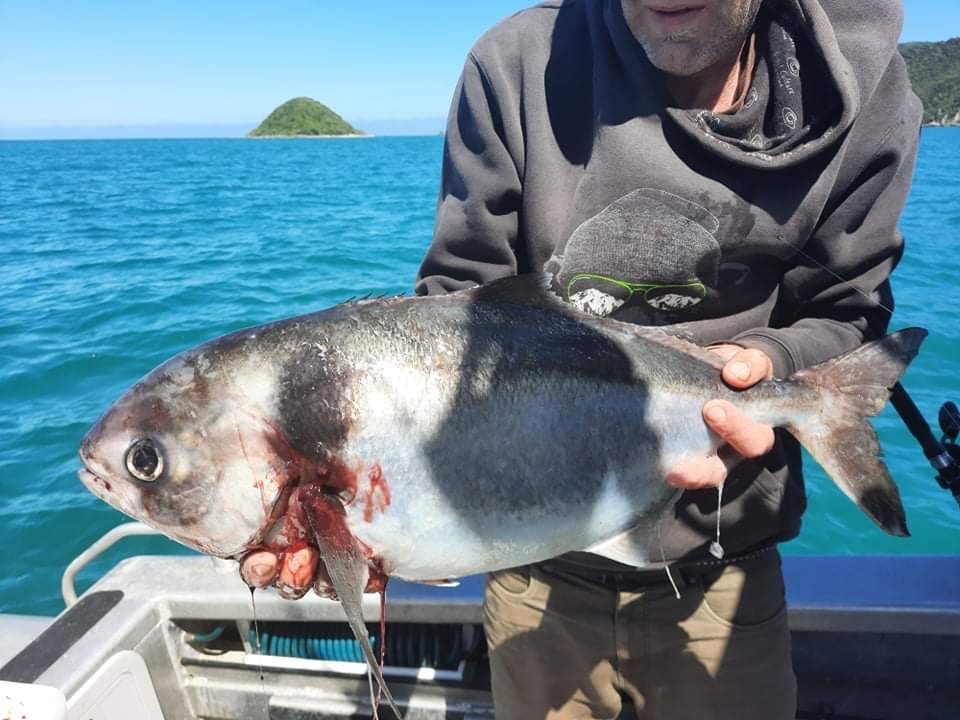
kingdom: Animalia
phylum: Chordata
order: Perciformes
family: Centrolophidae
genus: Seriolella
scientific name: Seriolella brama
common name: Blue warehou
